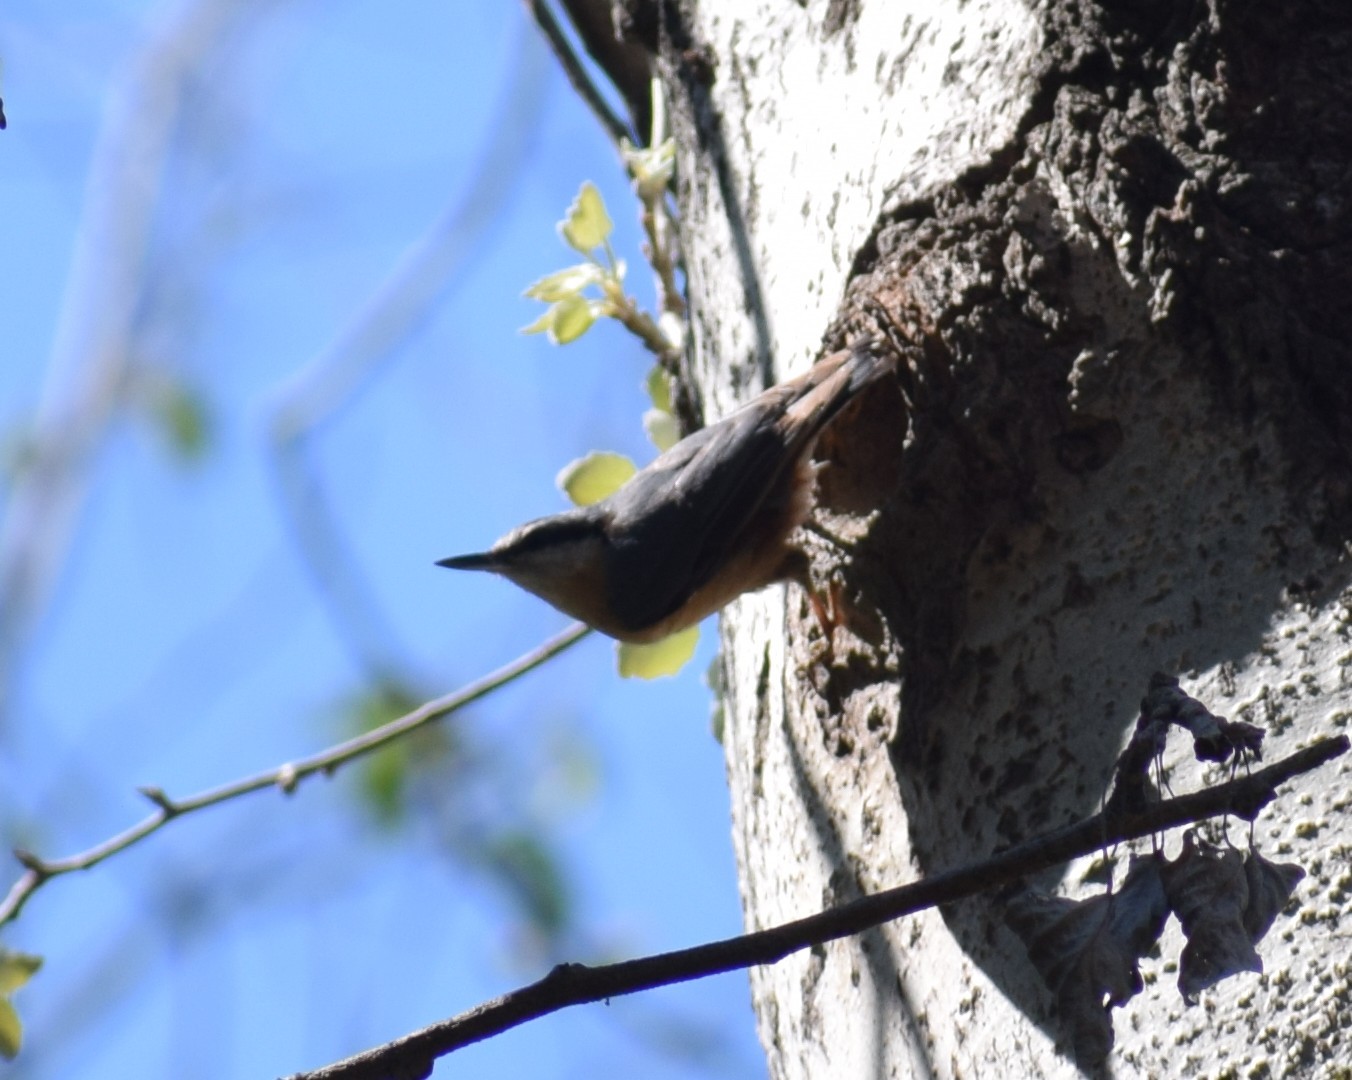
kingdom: Animalia
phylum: Chordata
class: Aves
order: Passeriformes
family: Sittidae
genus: Sitta
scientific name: Sitta europaea
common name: Eurasian nuthatch
